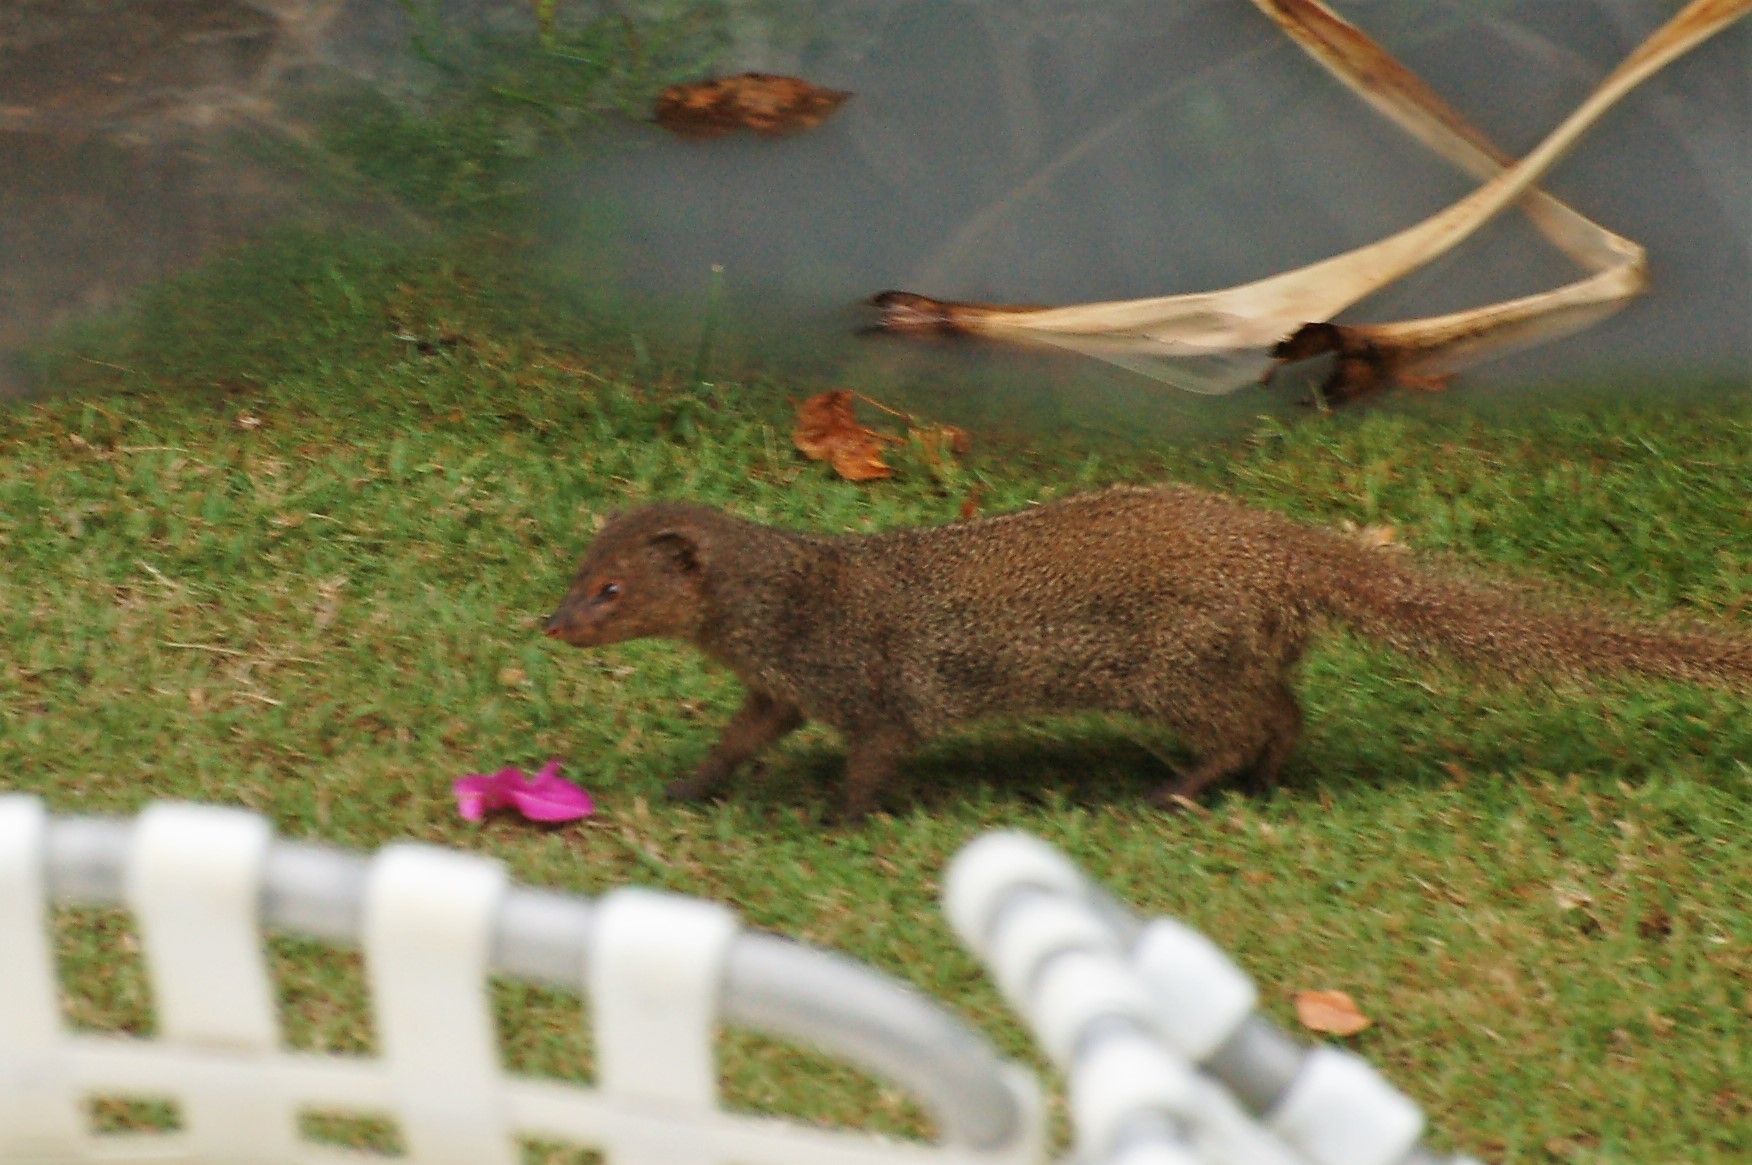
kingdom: Animalia
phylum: Chordata
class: Mammalia
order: Carnivora
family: Herpestidae
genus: Herpestes
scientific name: Herpestes javanicus
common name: Small asian mongoose
